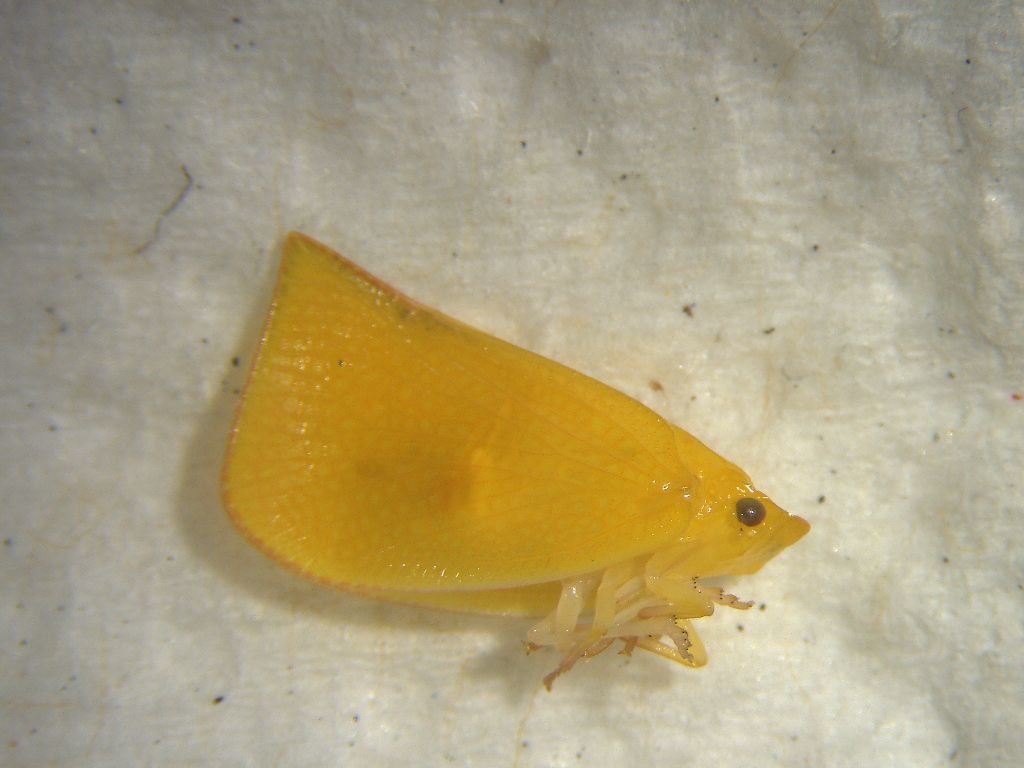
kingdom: Animalia
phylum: Arthropoda
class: Insecta
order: Hemiptera
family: Flatidae
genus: Siphanta
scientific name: Siphanta acuta
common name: Torpedo bug
